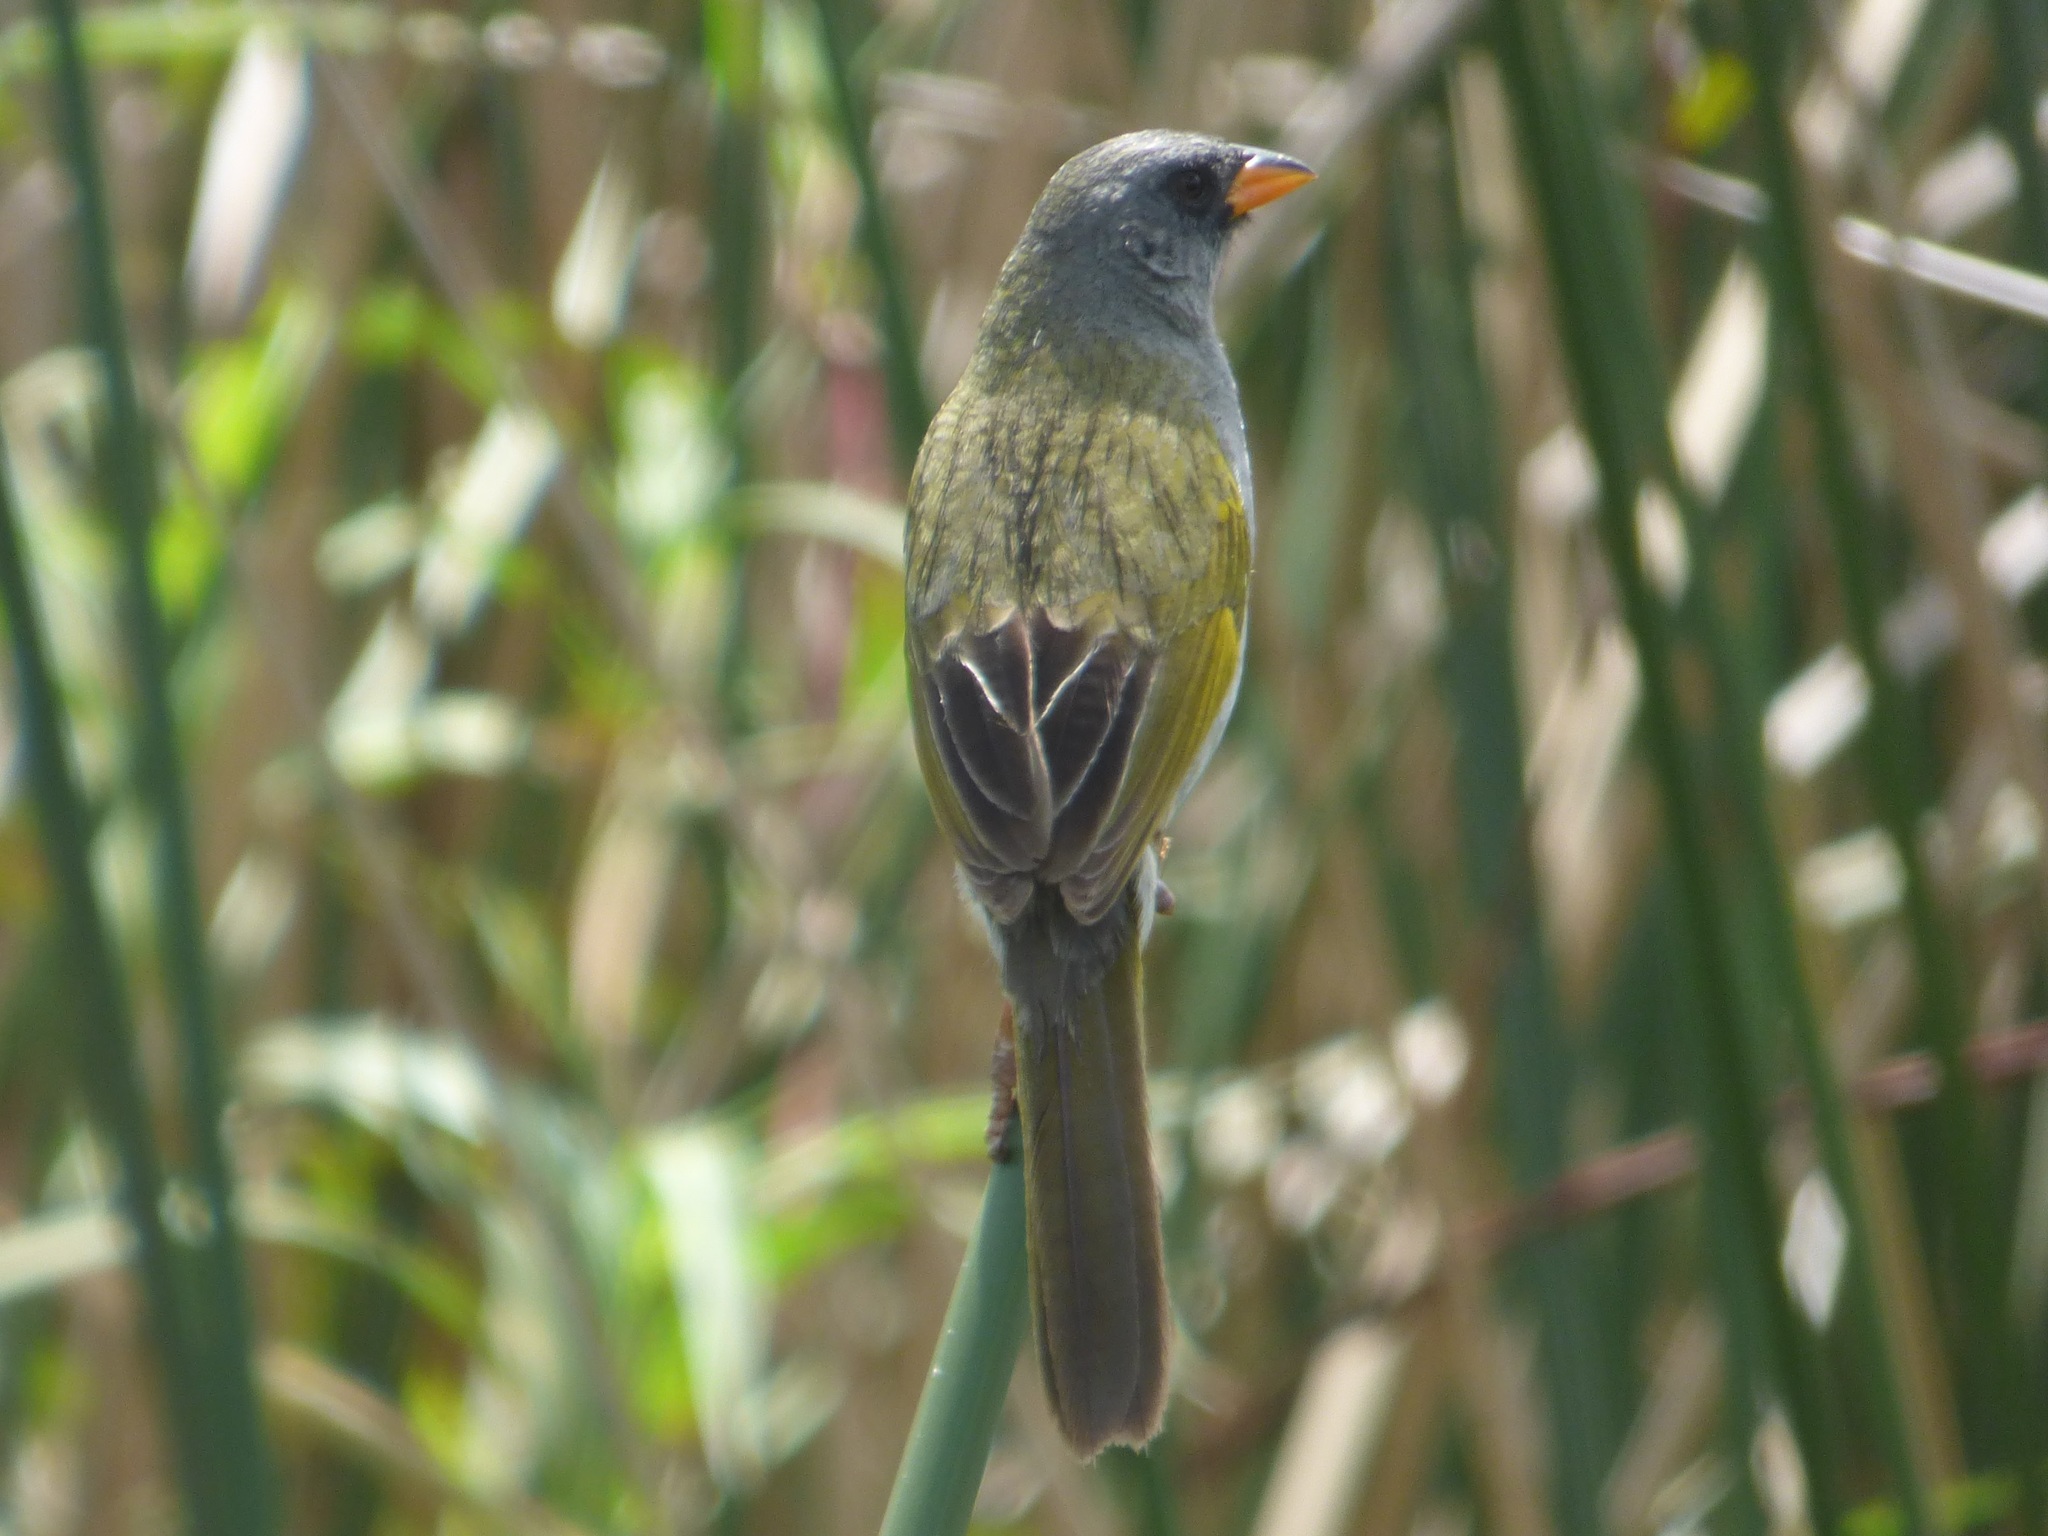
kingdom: Animalia
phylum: Chordata
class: Aves
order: Passeriformes
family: Thraupidae
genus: Embernagra
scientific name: Embernagra platensis
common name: Pampa finch
